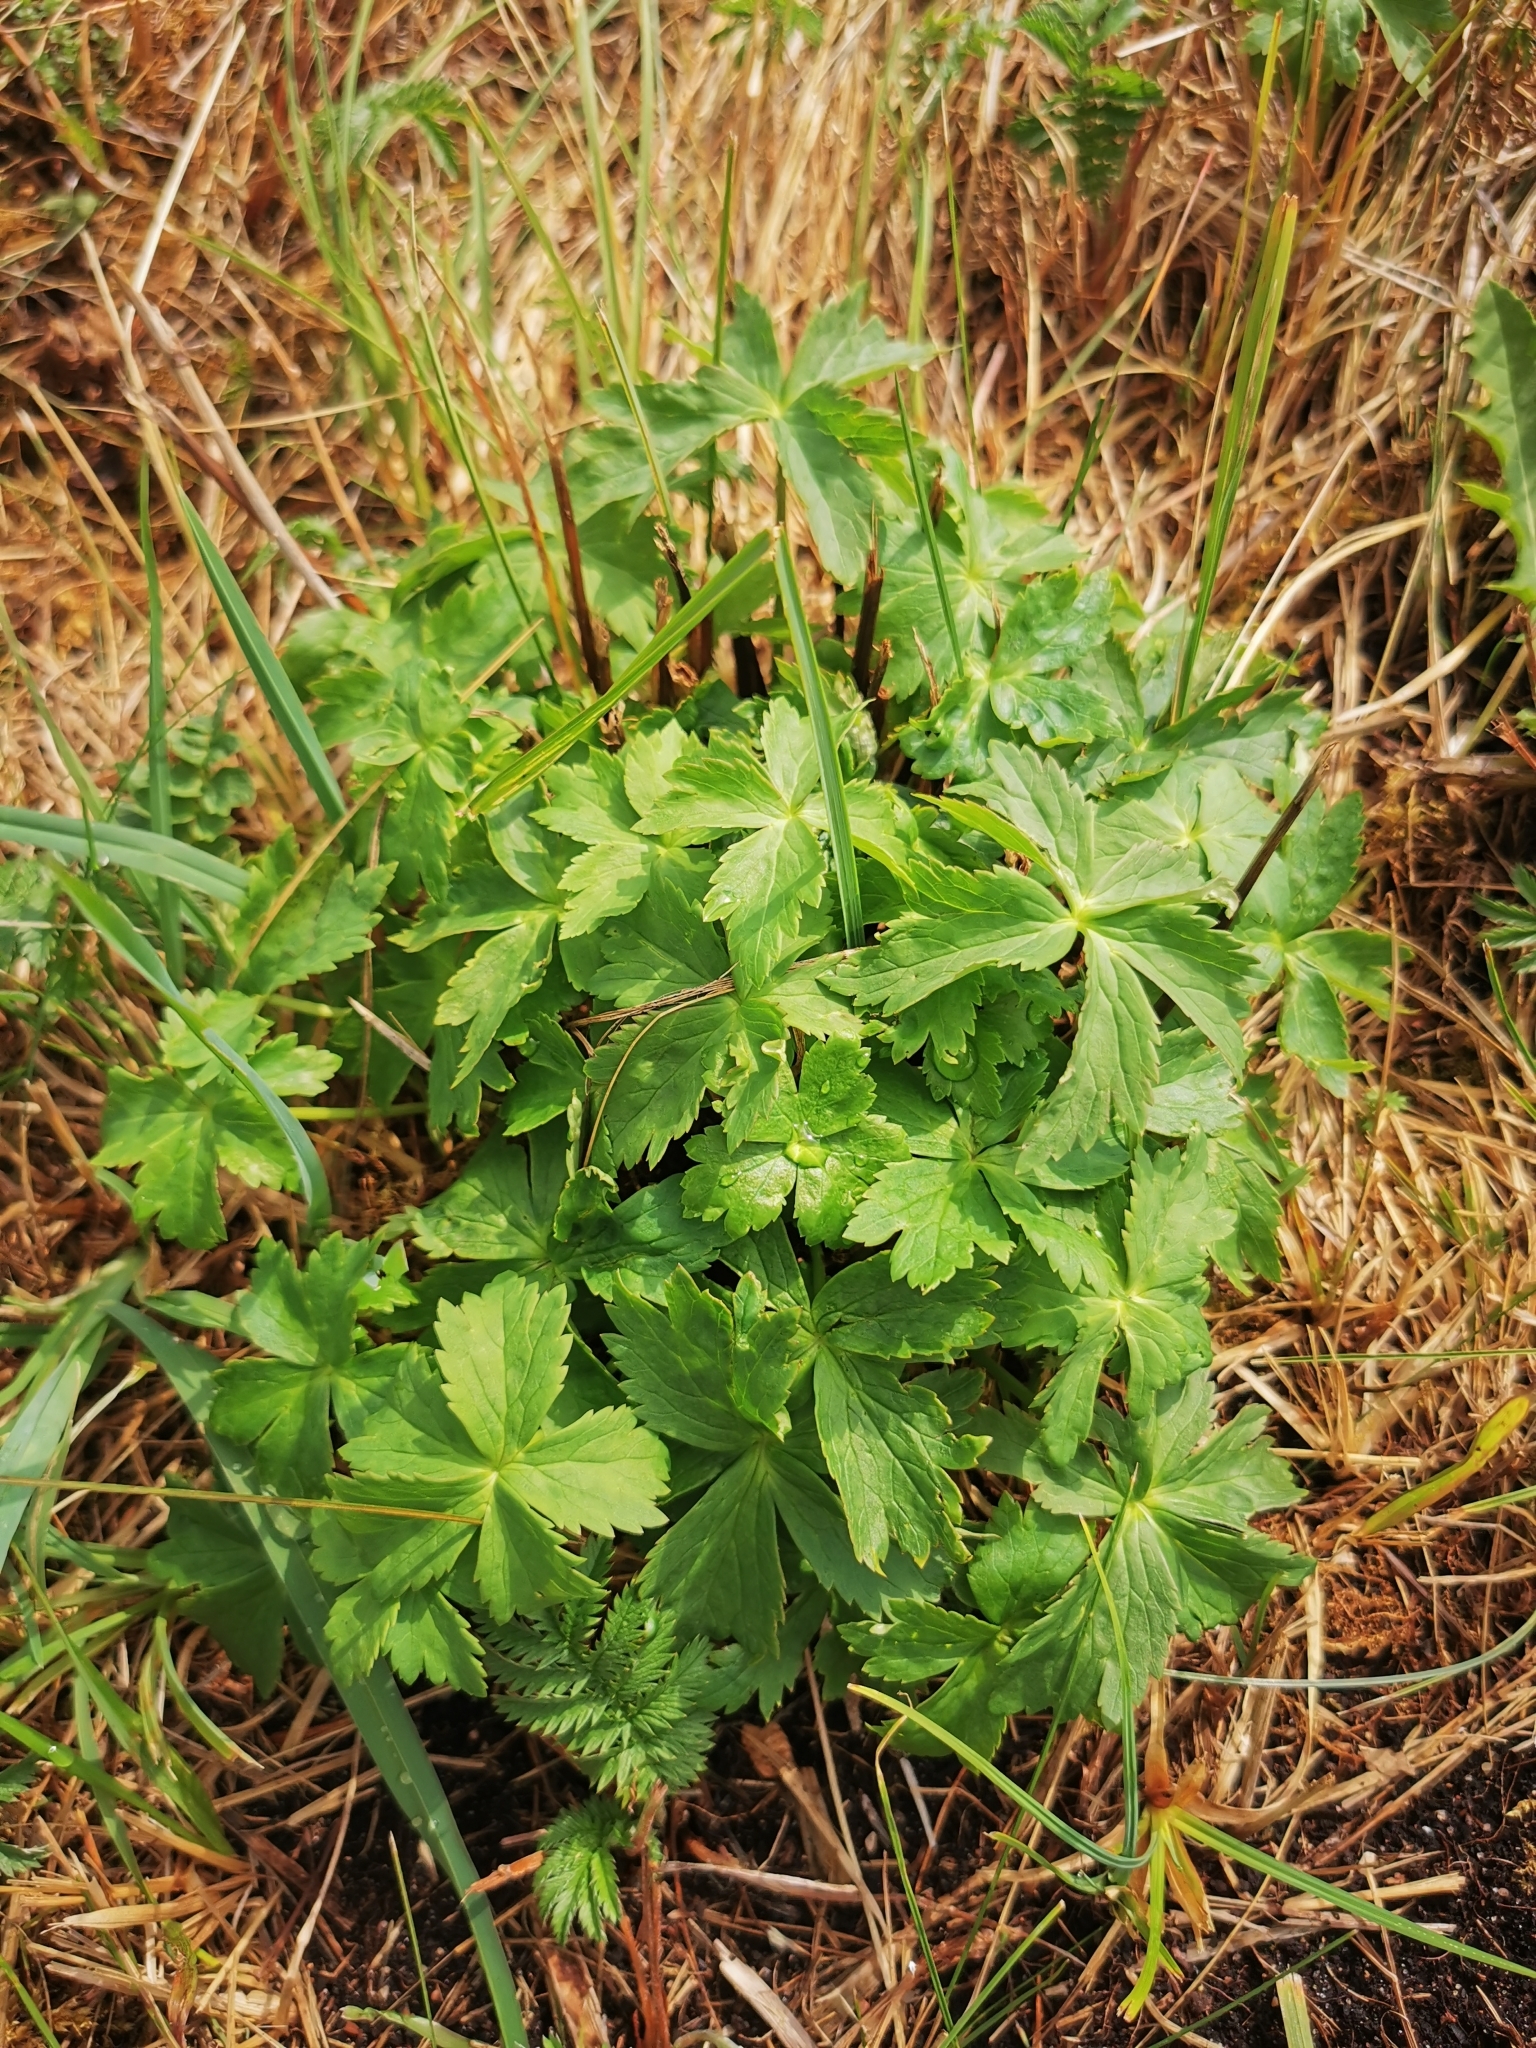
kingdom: Plantae
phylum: Tracheophyta
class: Magnoliopsida
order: Ranunculales
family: Ranunculaceae
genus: Trollius
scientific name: Trollius europaeus
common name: European globeflower
